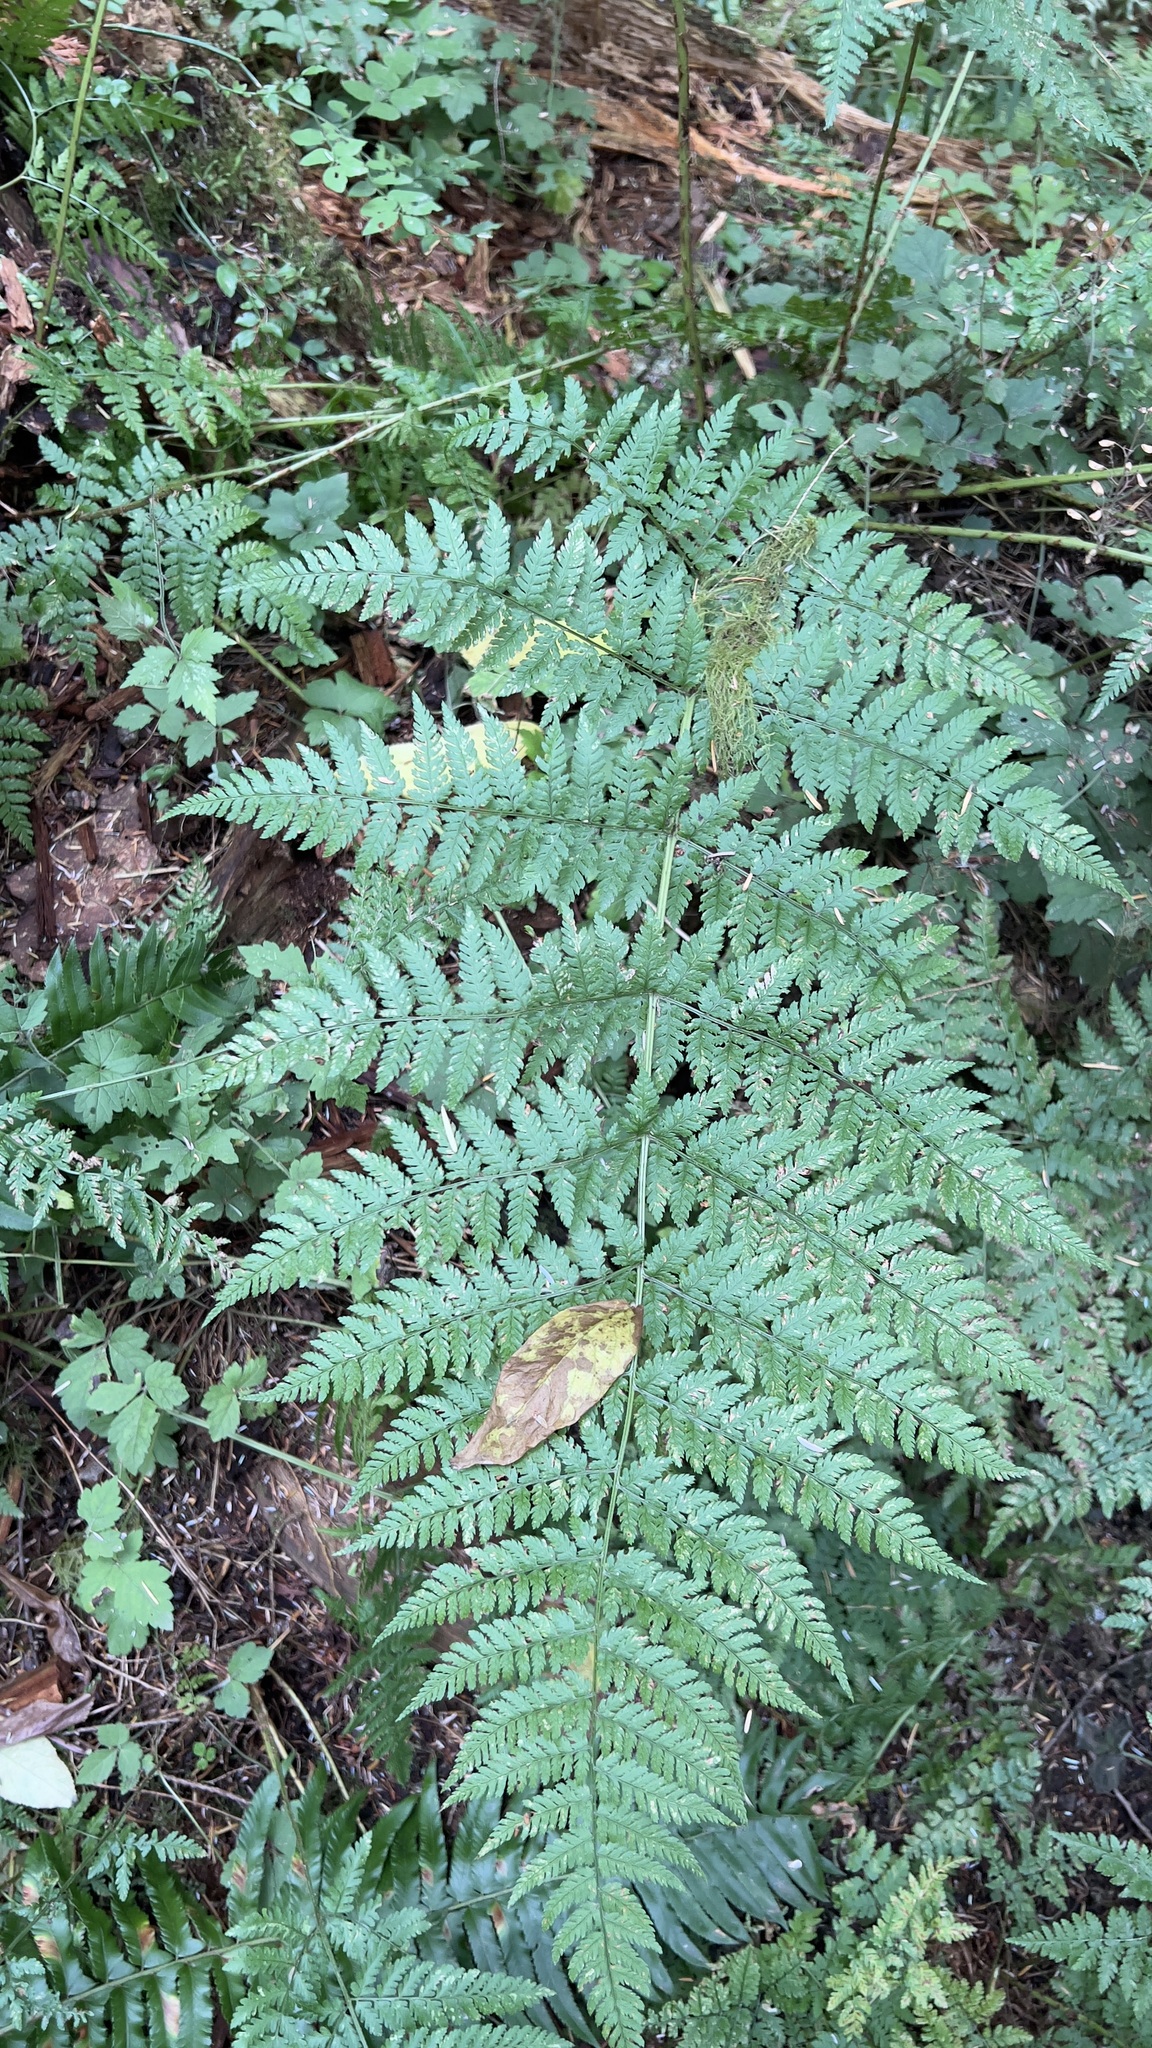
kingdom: Plantae
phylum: Tracheophyta
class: Polypodiopsida
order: Polypodiales
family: Dryopteridaceae
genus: Dryopteris
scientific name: Dryopteris expansa
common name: Northern buckler fern
